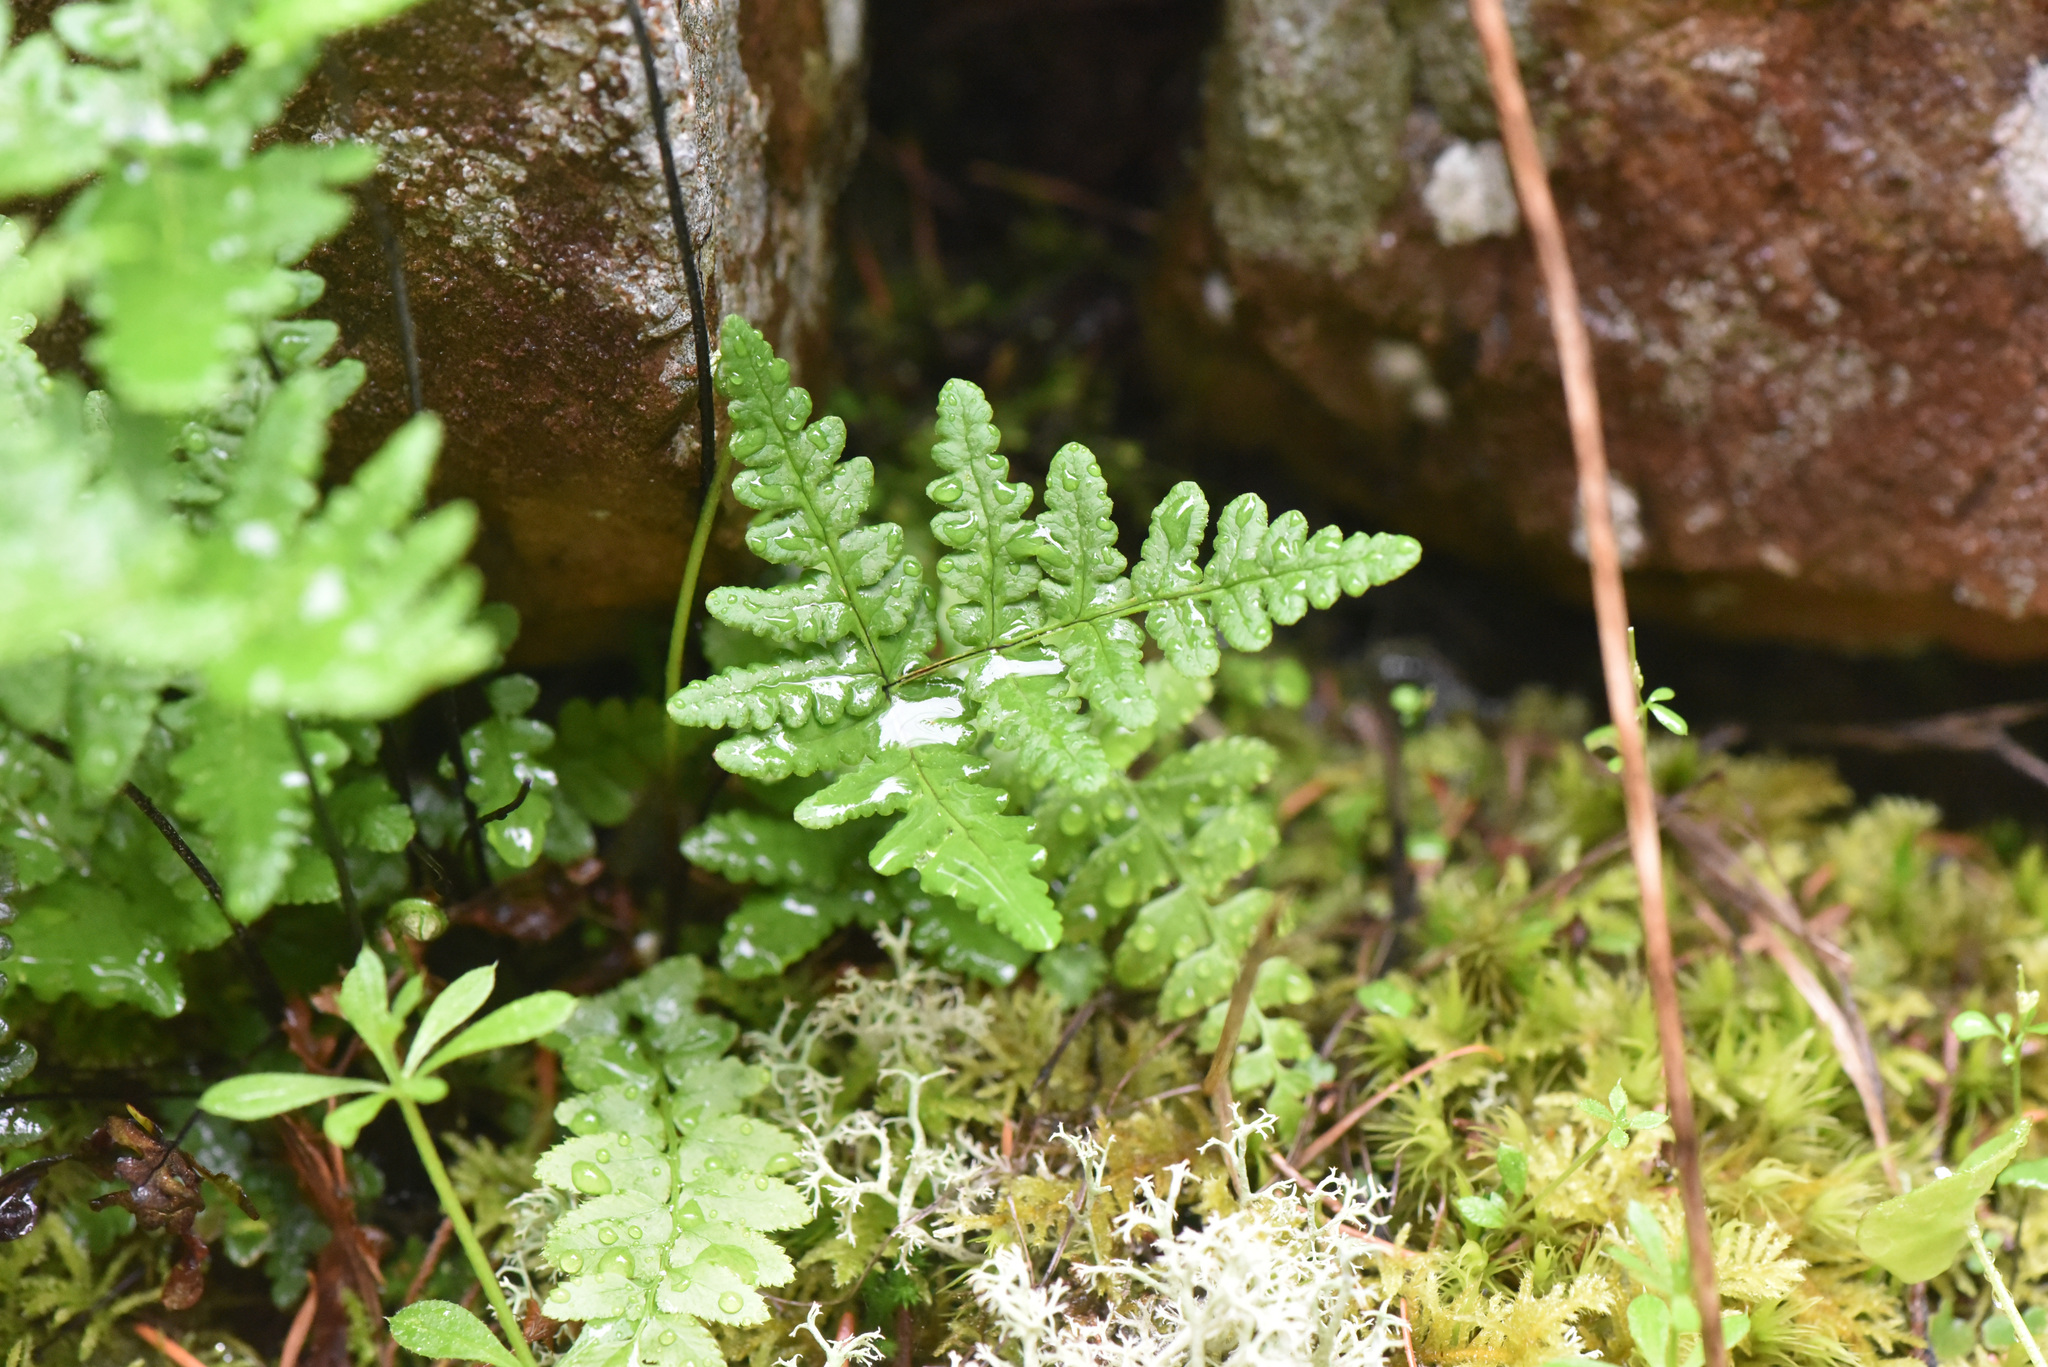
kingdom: Plantae
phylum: Tracheophyta
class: Polypodiopsida
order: Polypodiales
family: Pteridaceae
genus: Pentagramma
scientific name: Pentagramma triangularis
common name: Gold fern
